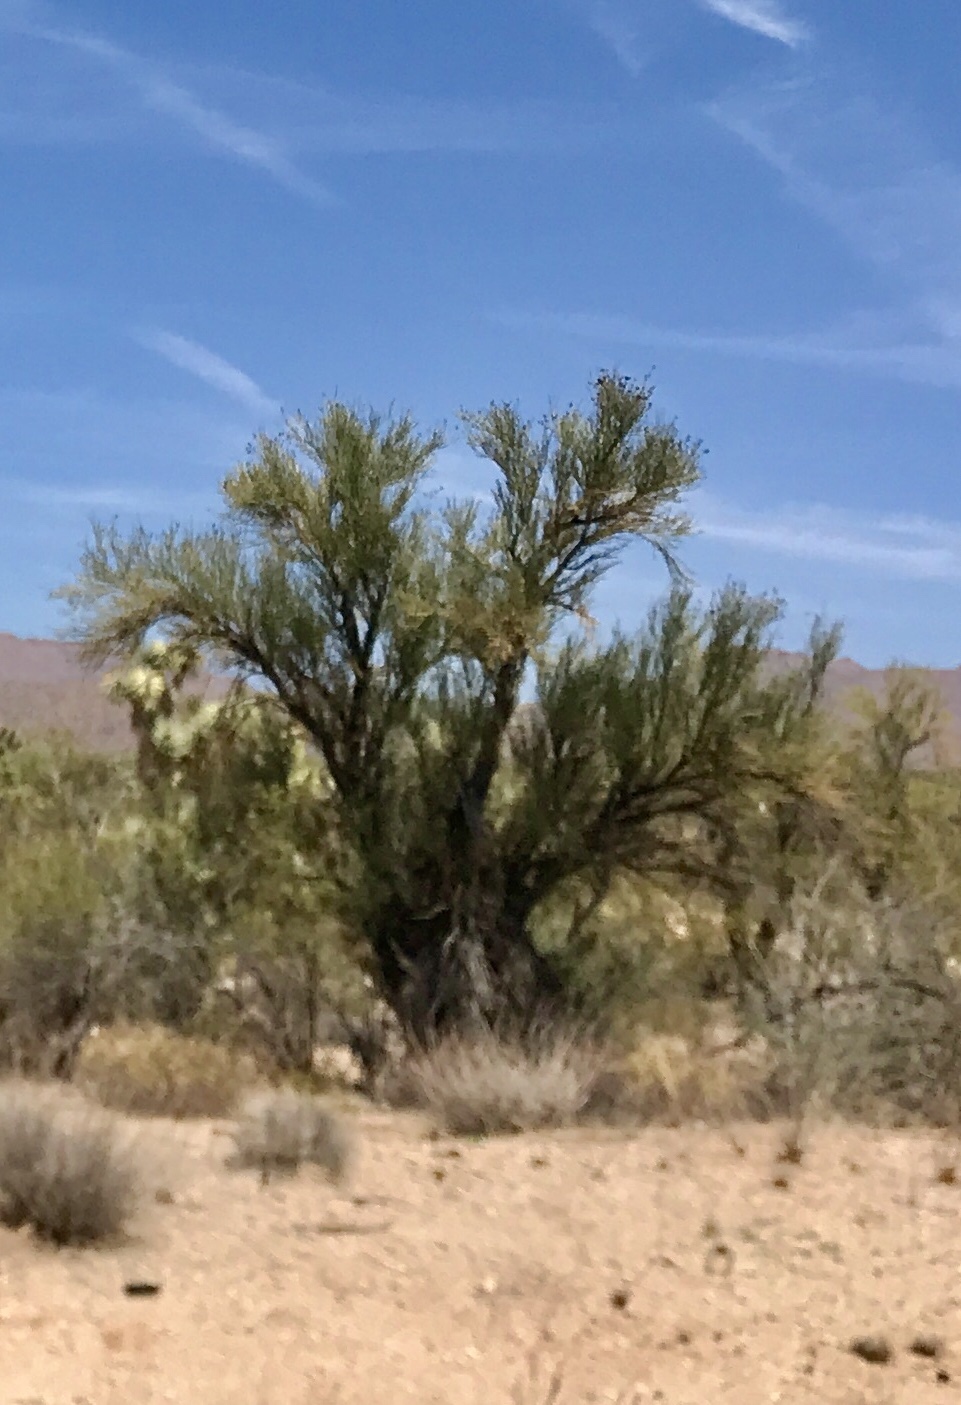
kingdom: Plantae
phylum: Tracheophyta
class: Magnoliopsida
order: Celastrales
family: Celastraceae
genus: Canotia
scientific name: Canotia holacantha
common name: Crucifixion thorns
